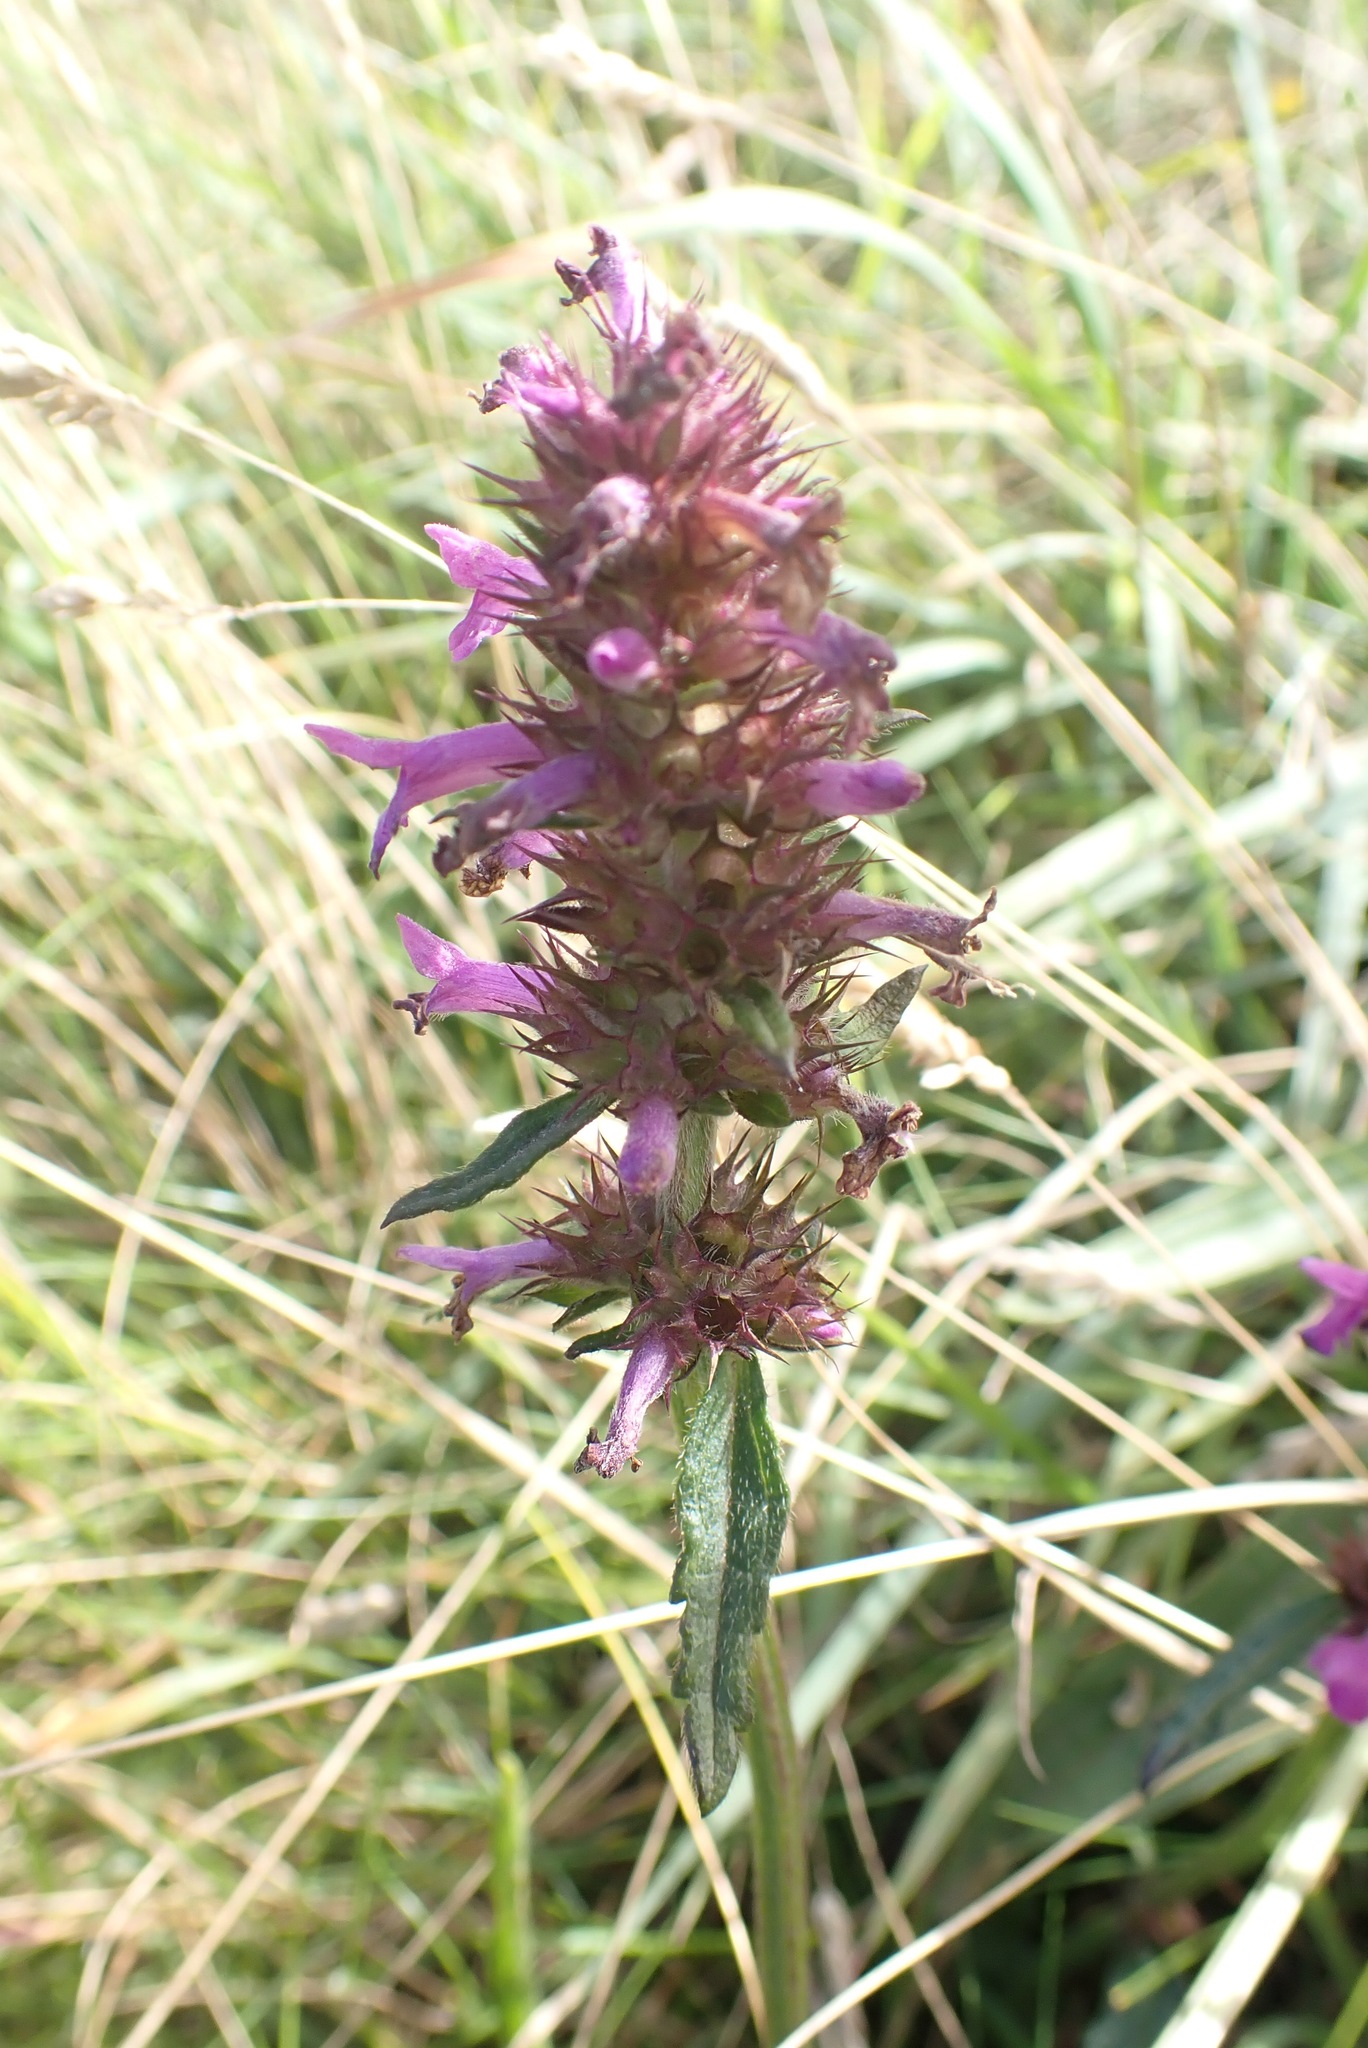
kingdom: Plantae
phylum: Tracheophyta
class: Magnoliopsida
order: Lamiales
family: Lamiaceae
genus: Betonica
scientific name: Betonica officinalis
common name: Bishop's-wort
